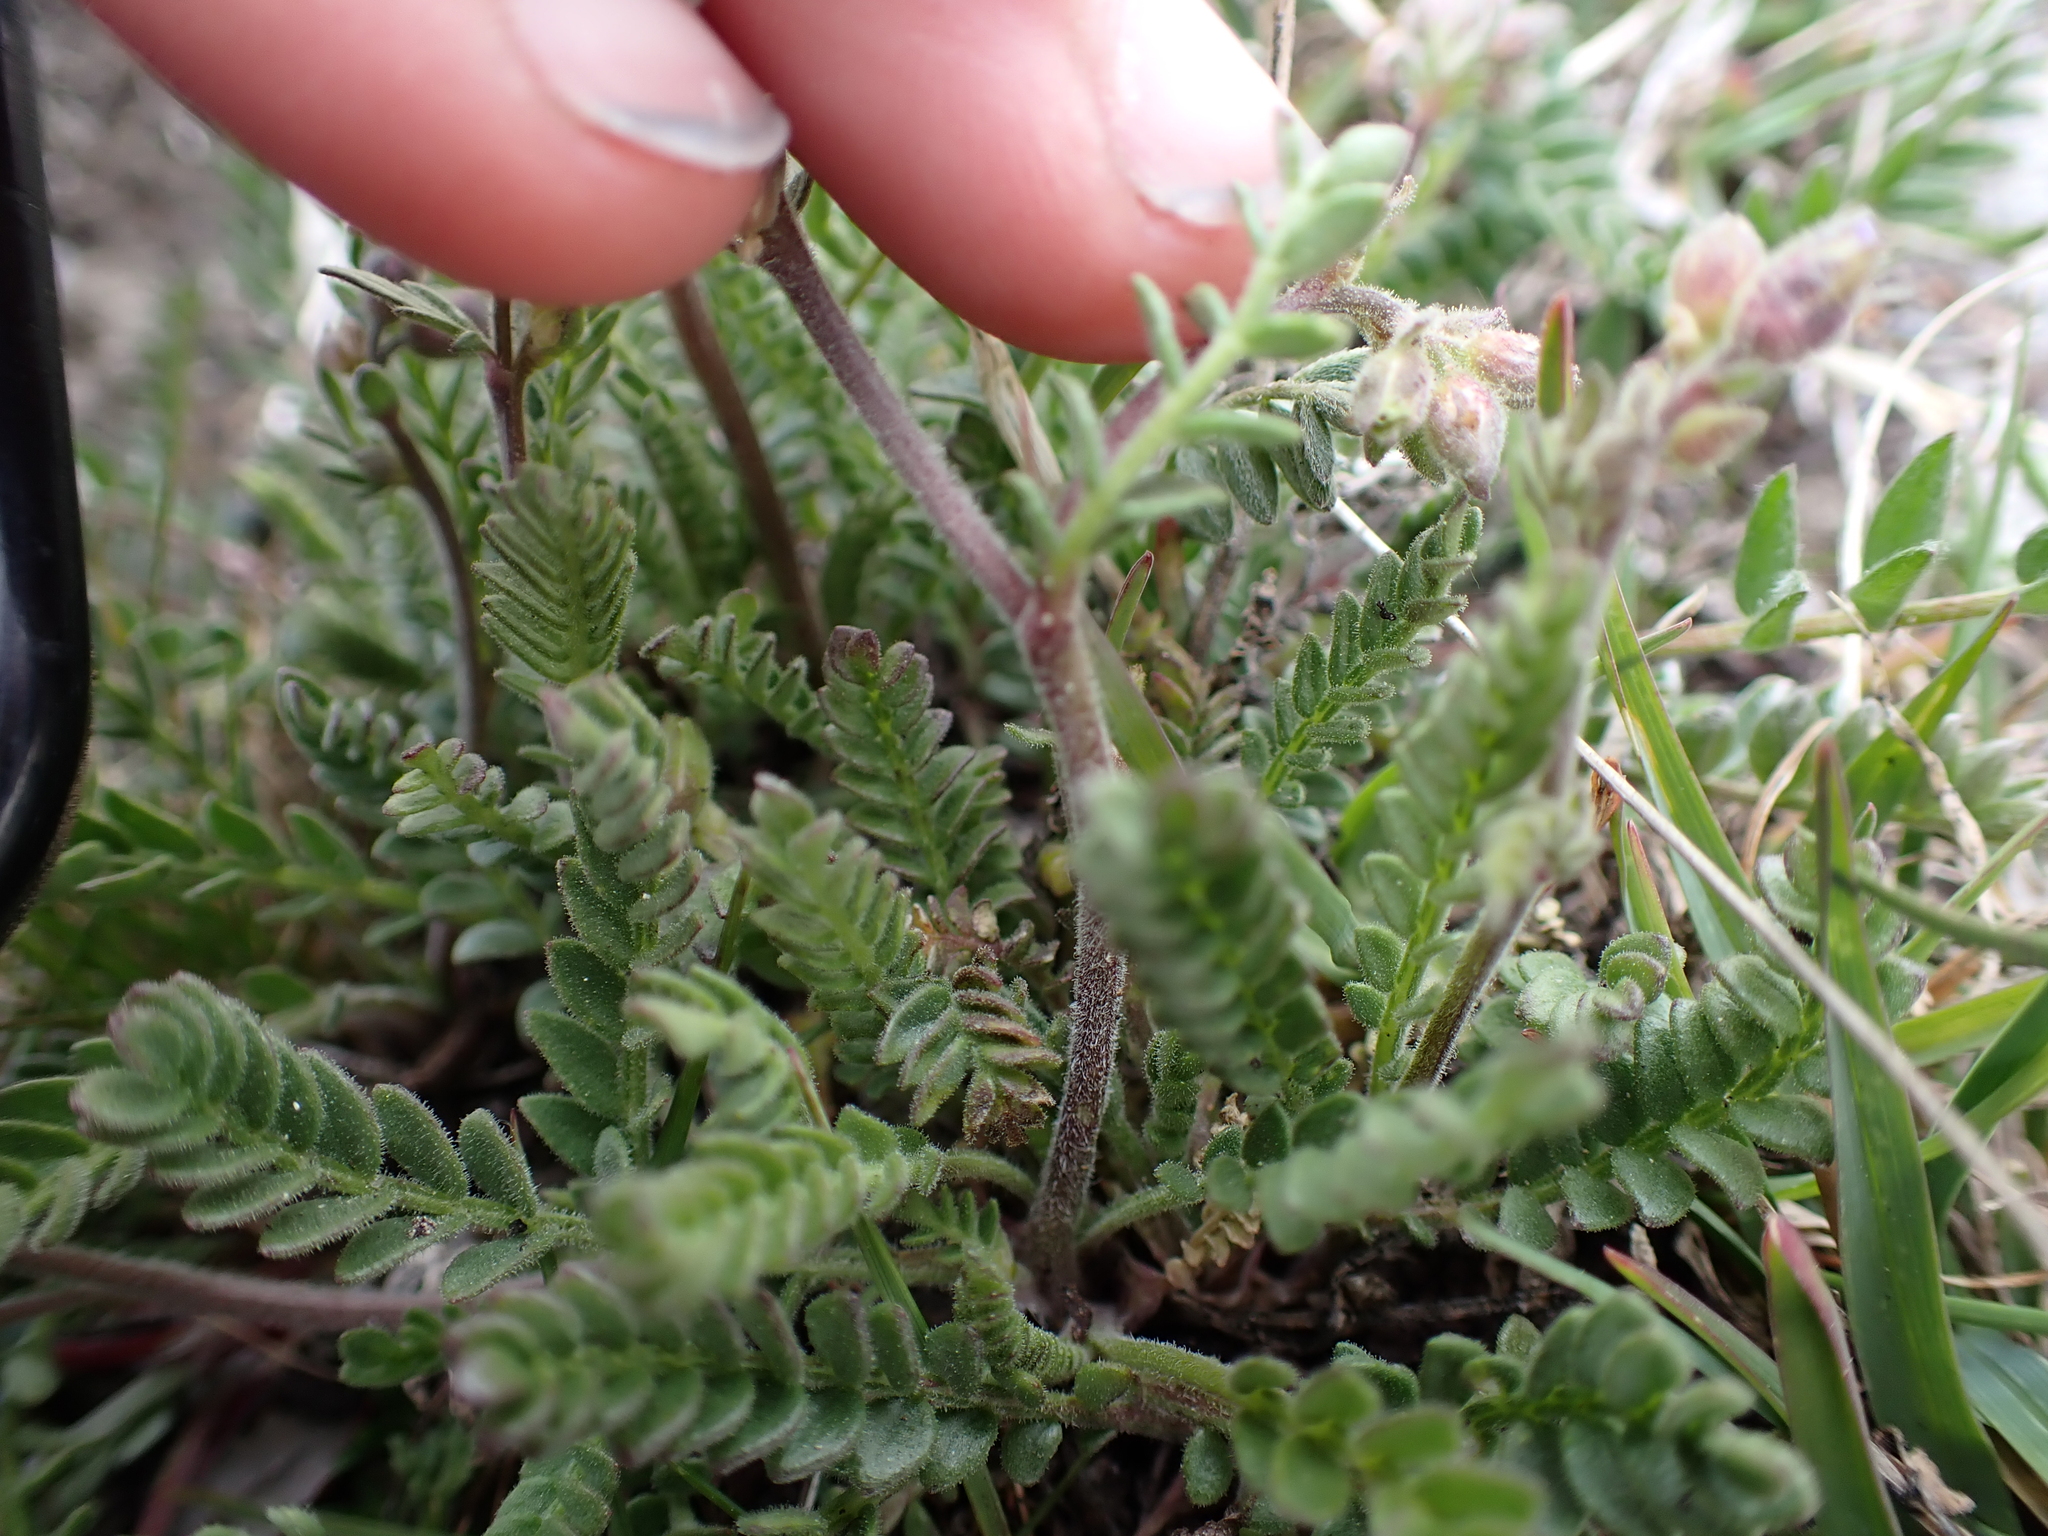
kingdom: Plantae
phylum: Tracheophyta
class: Magnoliopsida
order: Ericales
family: Polemoniaceae
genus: Polemonium
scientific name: Polemonium pulcherrimum
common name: Short jacob's-ladder
